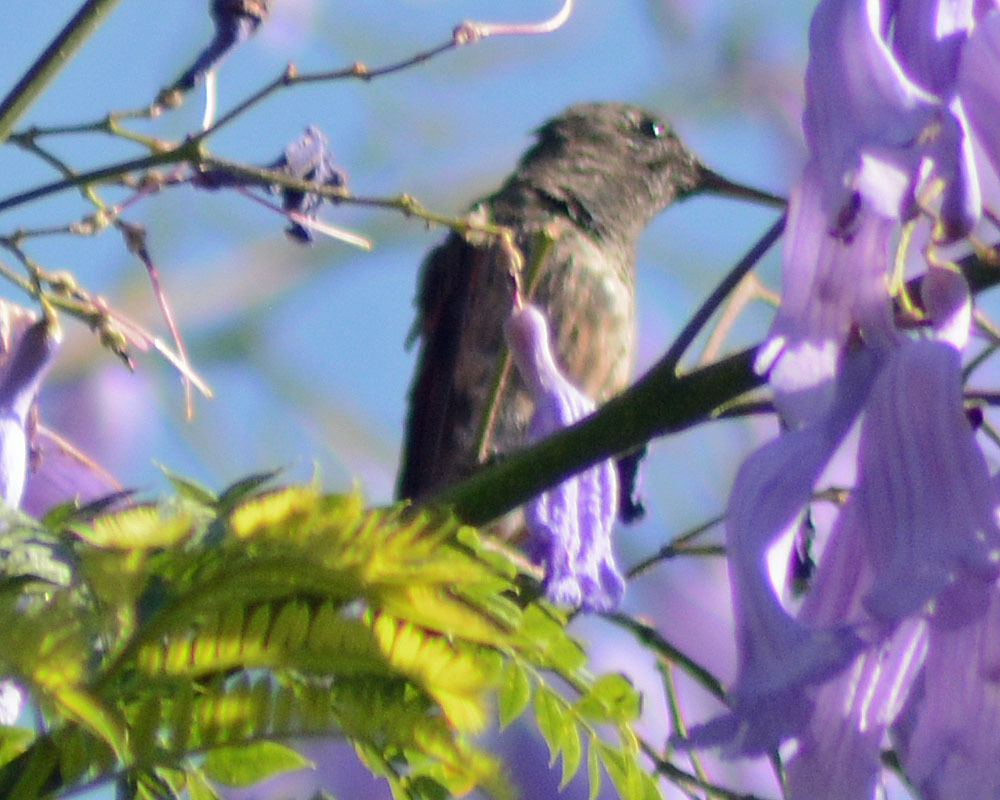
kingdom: Animalia
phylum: Chordata
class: Aves
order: Apodiformes
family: Trochilidae
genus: Saucerottia
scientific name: Saucerottia beryllina
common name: Berylline hummingbird
